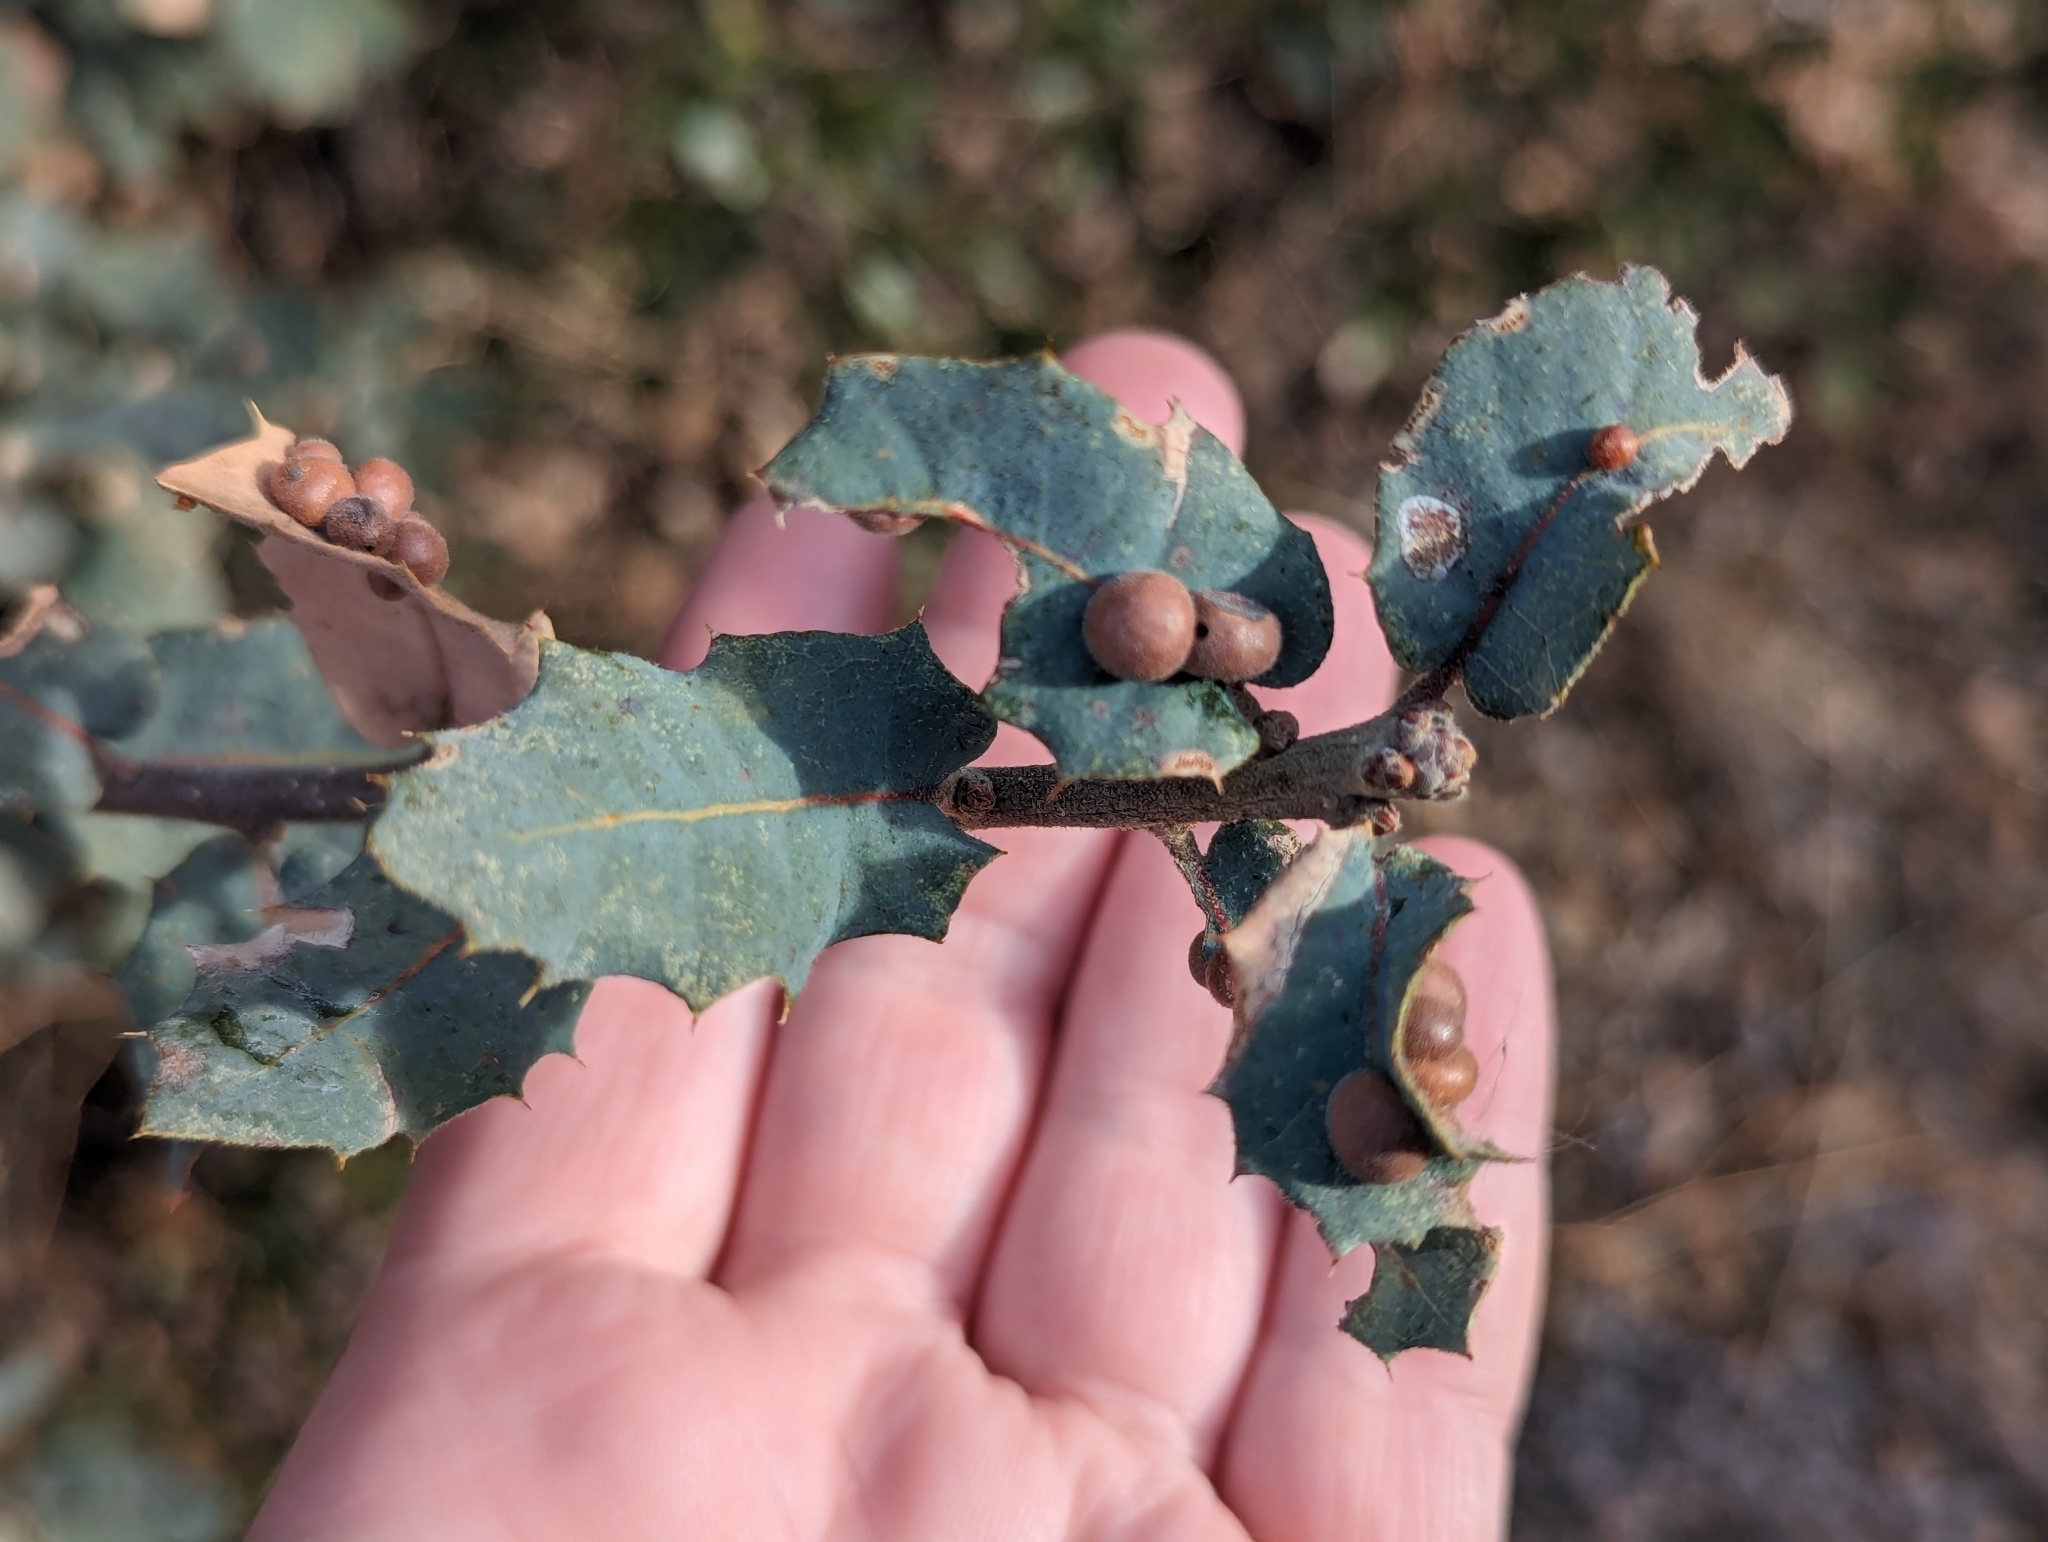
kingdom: Animalia
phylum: Arthropoda
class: Insecta
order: Hymenoptera
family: Cynipidae
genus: Trigonaspis
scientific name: Trigonaspis
